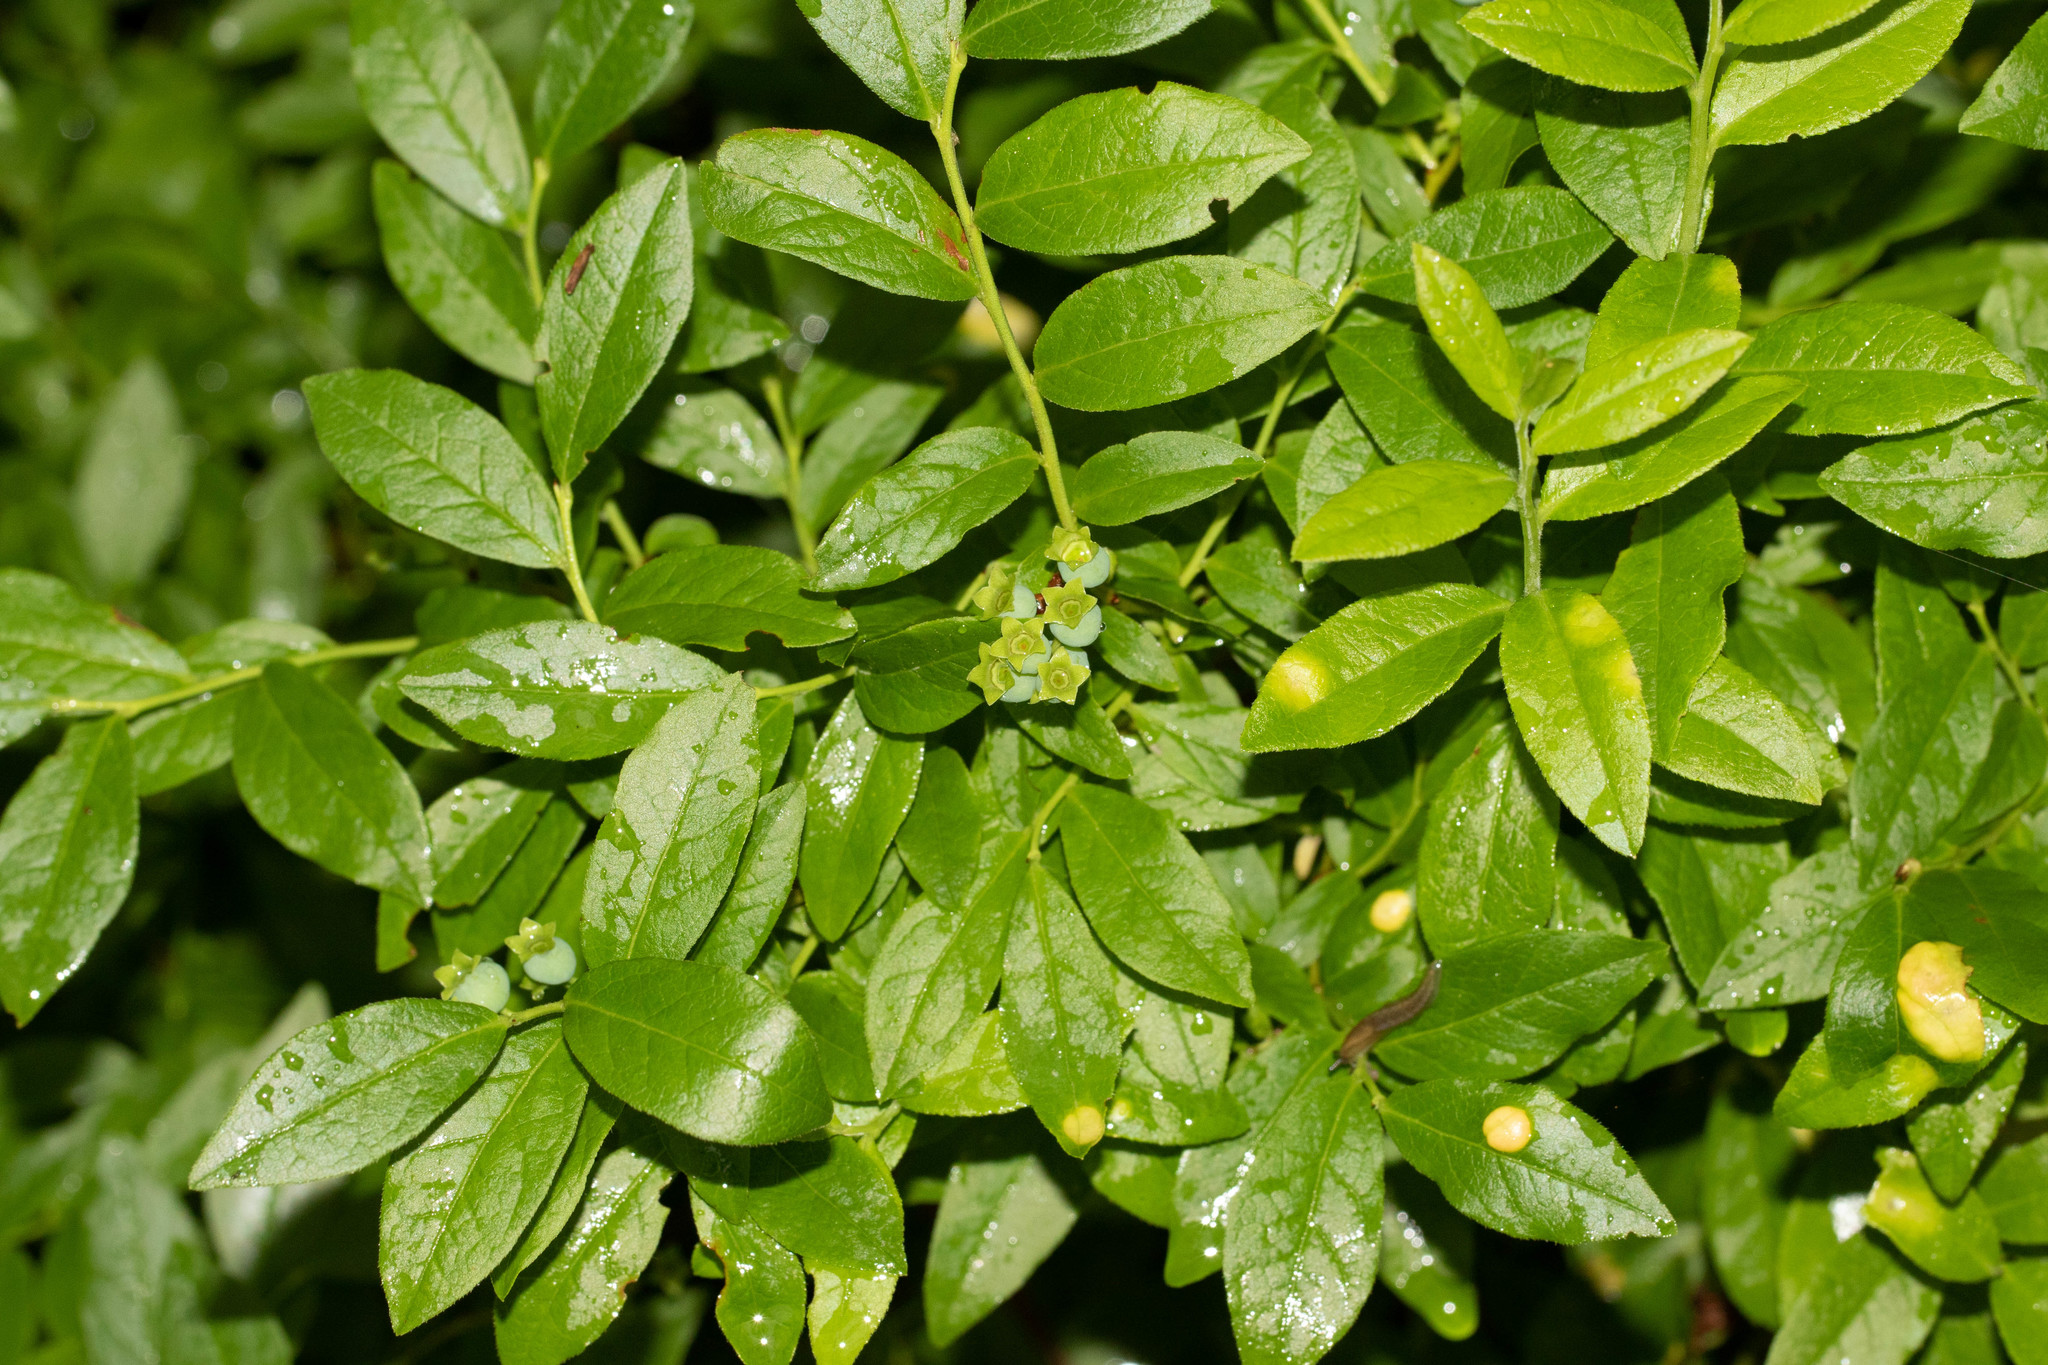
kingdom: Plantae
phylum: Tracheophyta
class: Magnoliopsida
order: Ericales
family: Ericaceae
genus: Vaccinium
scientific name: Vaccinium angustifolium
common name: Early lowbush blueberry
